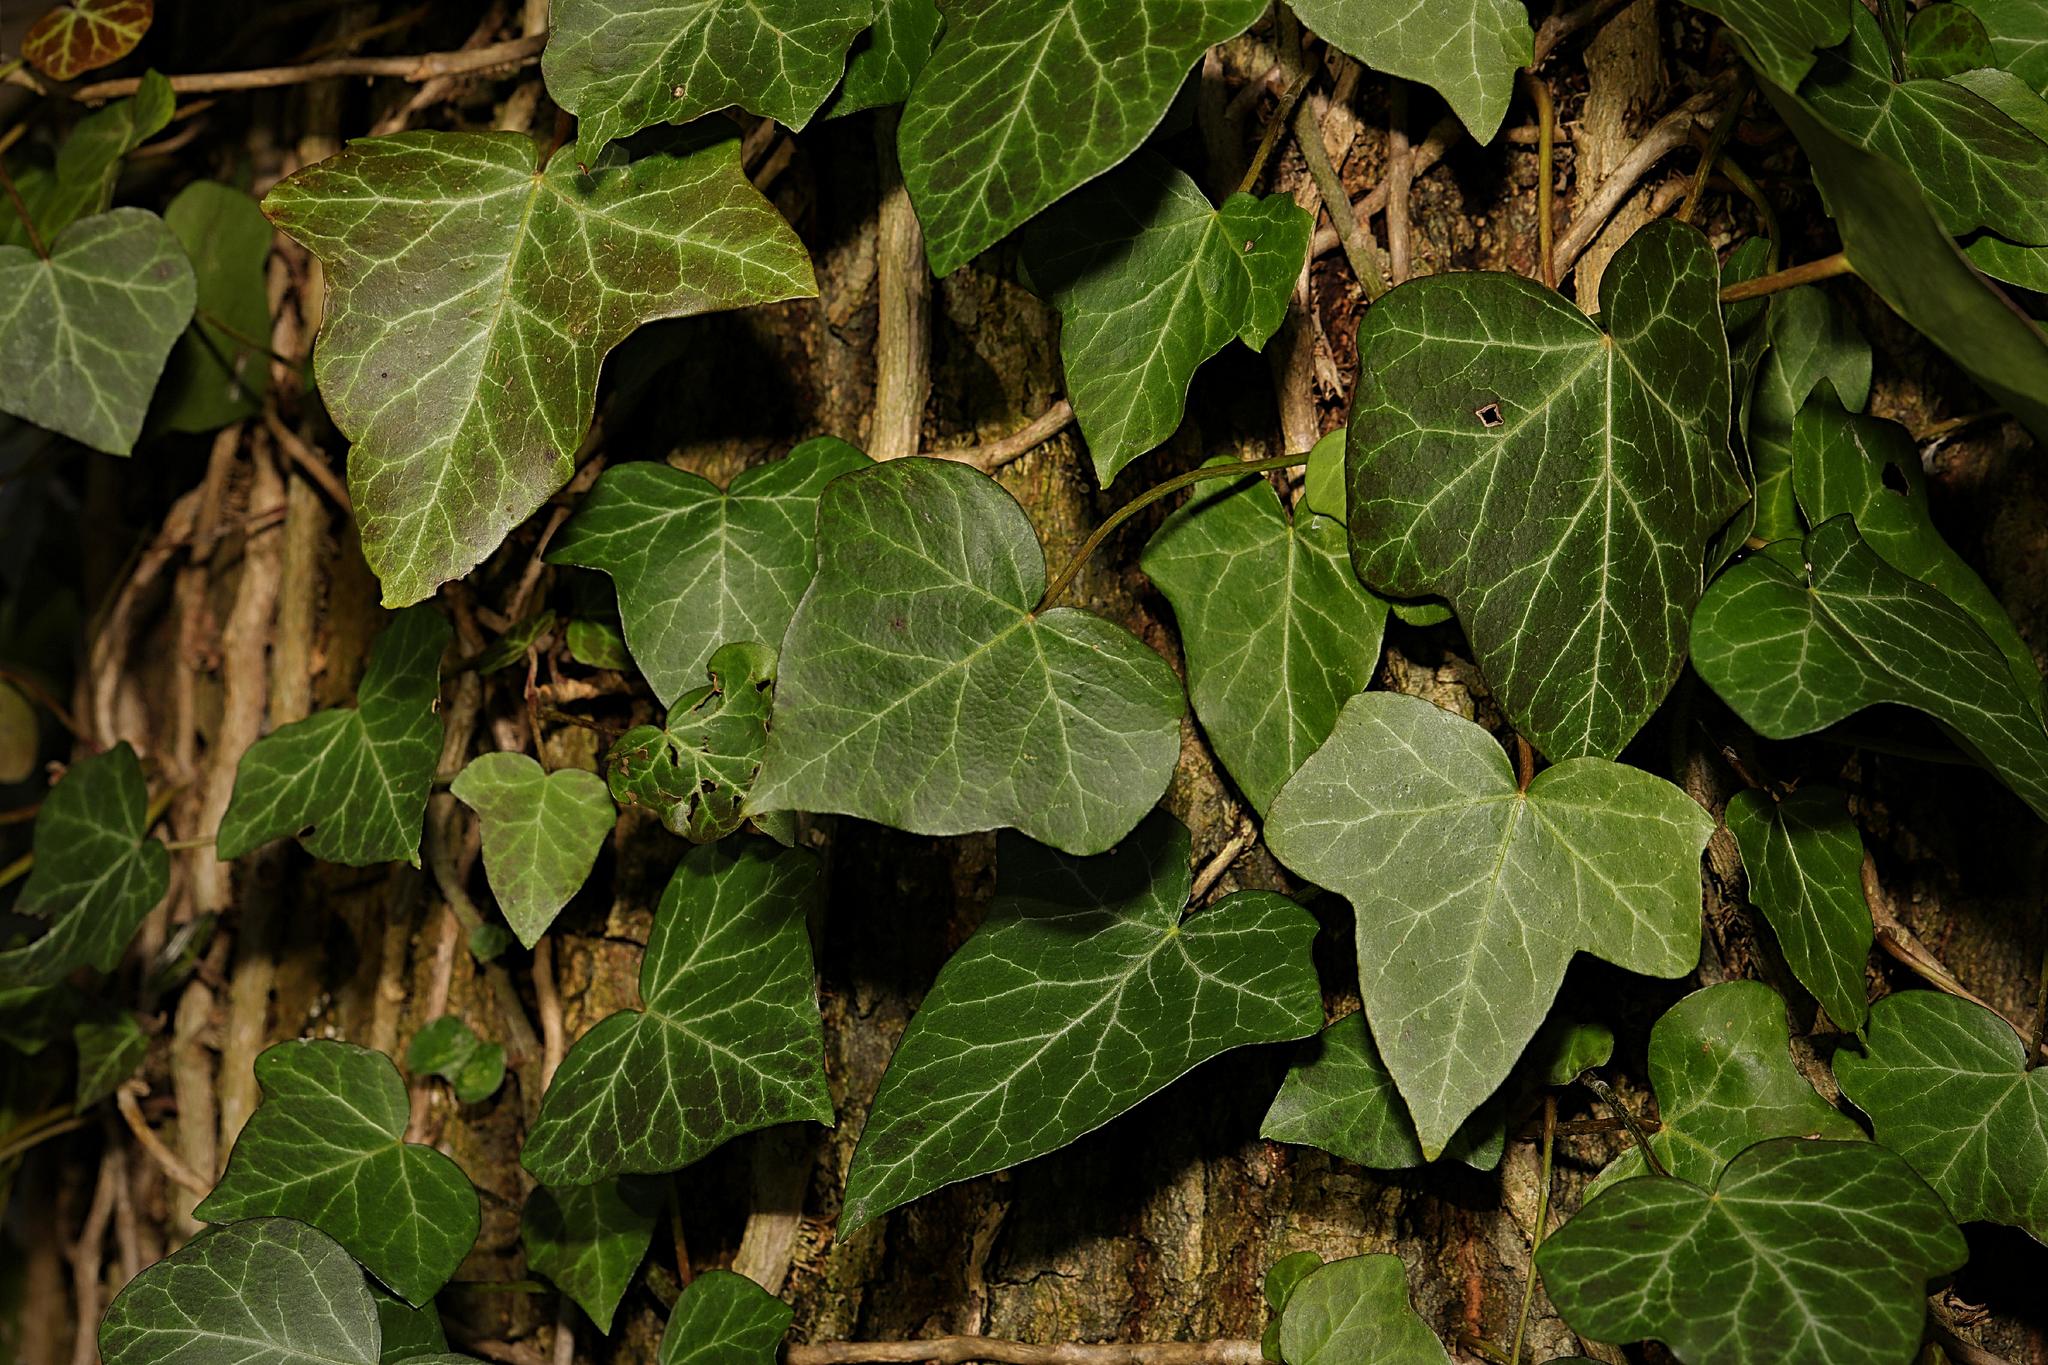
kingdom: Plantae
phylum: Tracheophyta
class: Magnoliopsida
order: Apiales
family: Araliaceae
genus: Hedera
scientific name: Hedera helix
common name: Ivy
